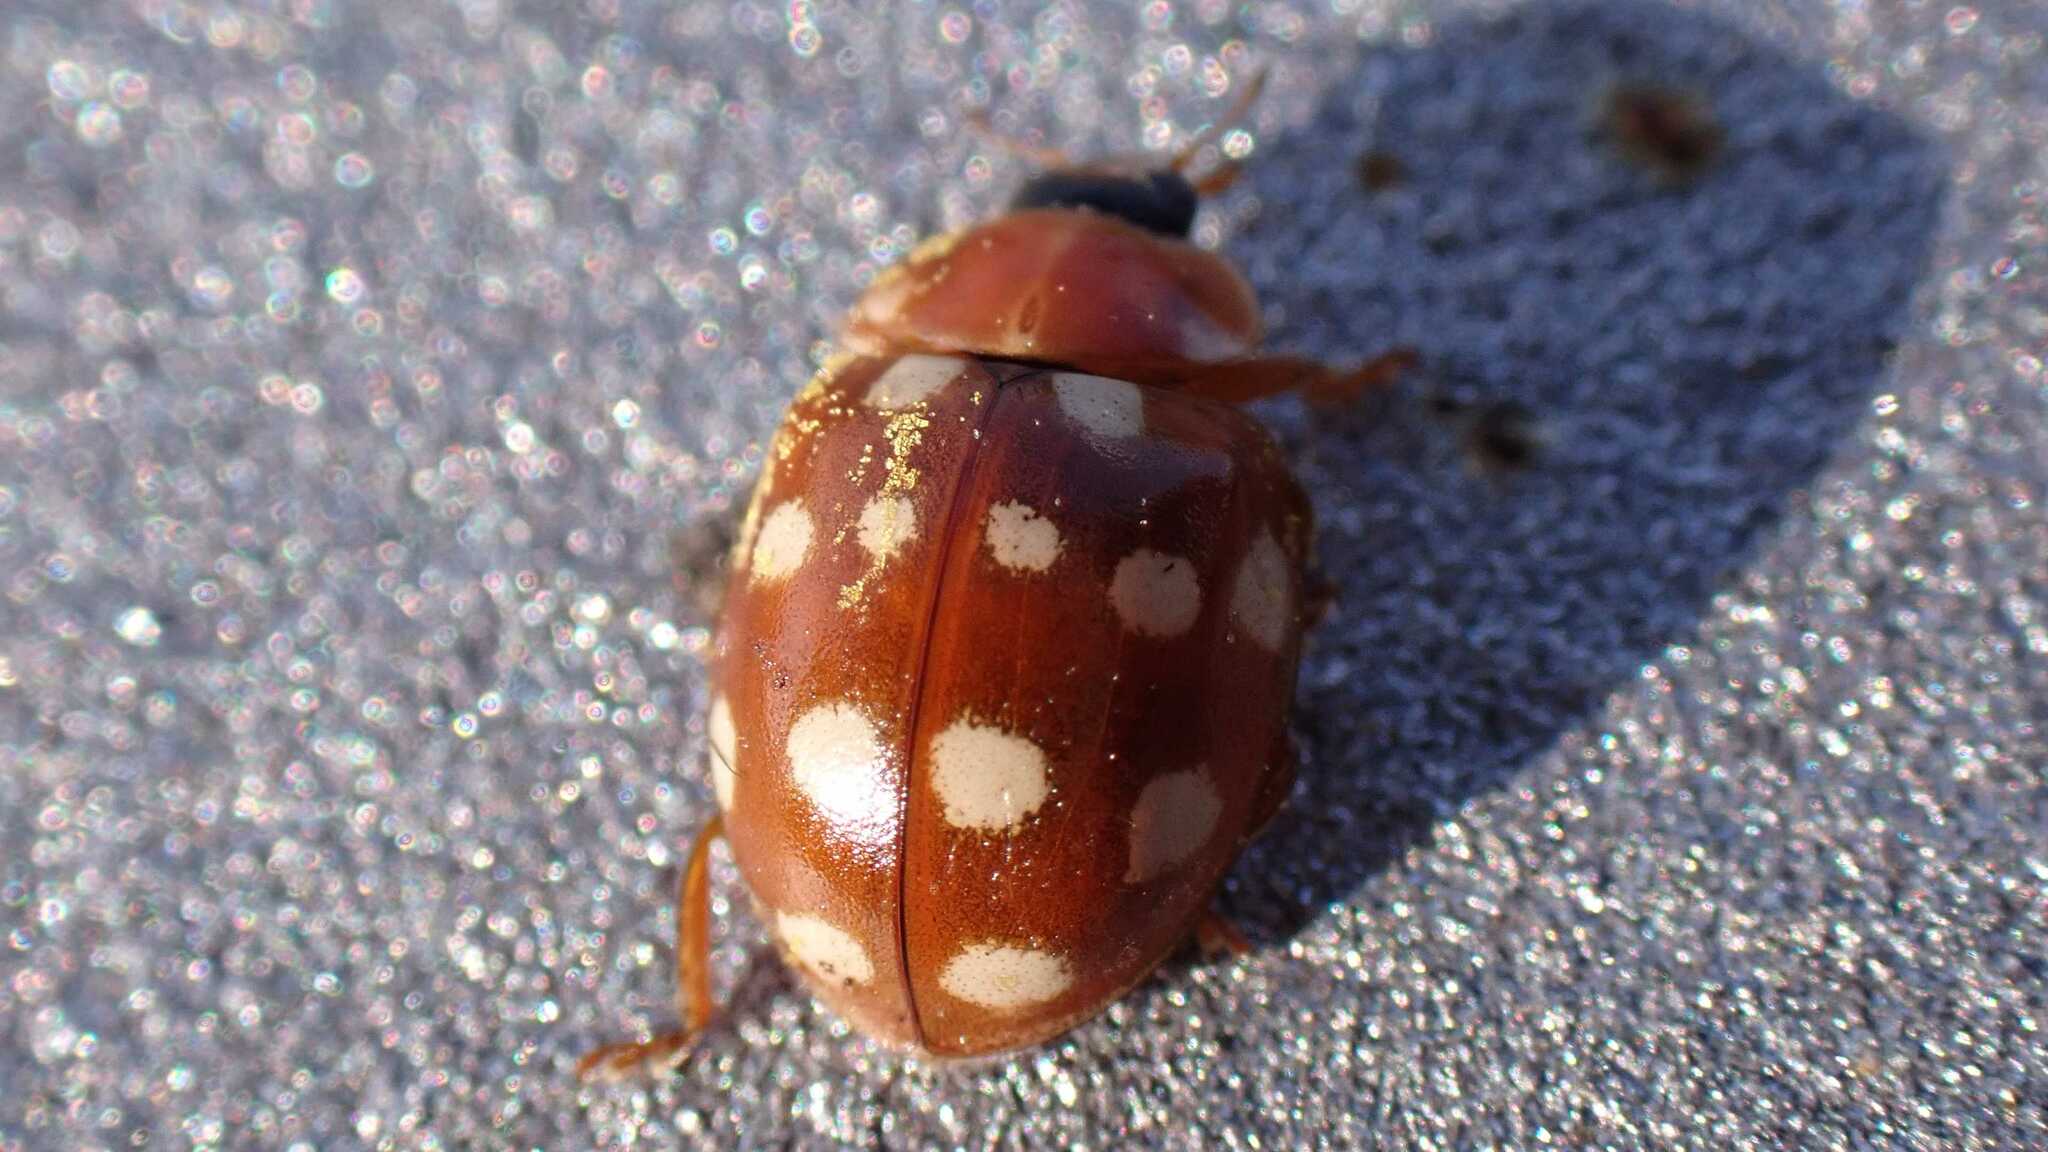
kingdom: Animalia
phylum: Arthropoda
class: Insecta
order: Coleoptera
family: Coccinellidae
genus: Calvia
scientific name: Calvia quatuordecimguttata
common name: Cream-spot ladybird
